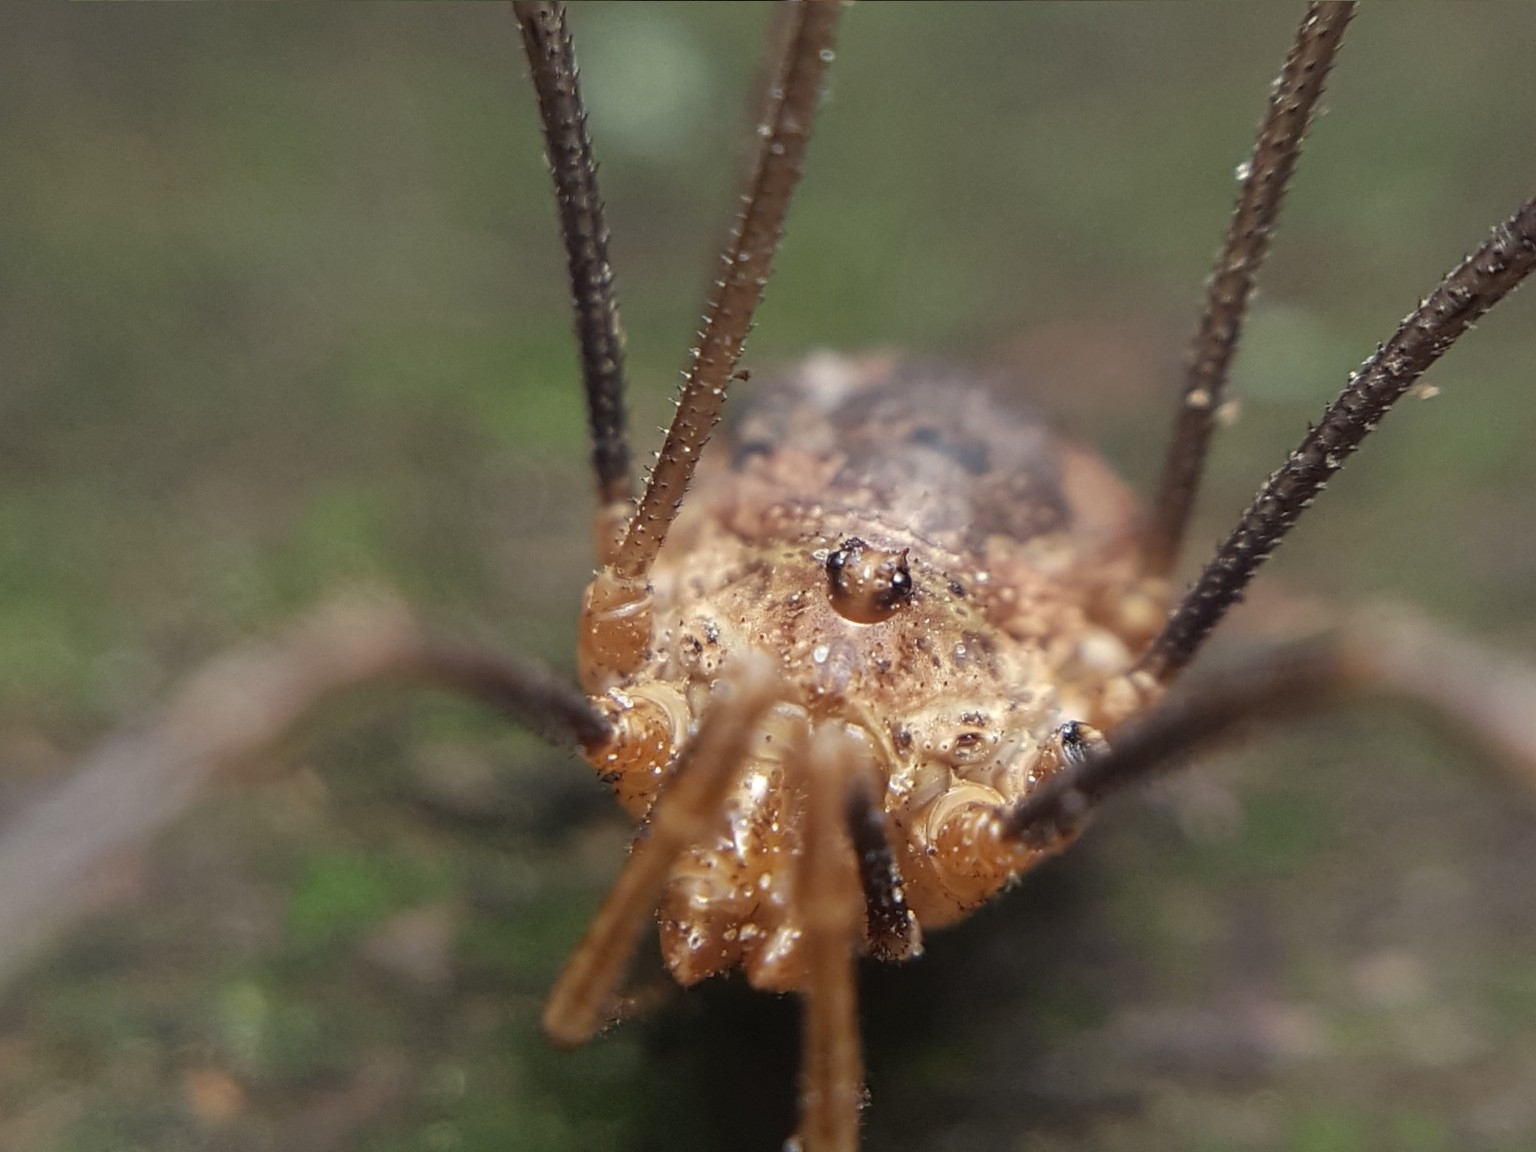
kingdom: Animalia
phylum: Arthropoda
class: Arachnida
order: Opiliones
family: Phalangiidae
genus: Phalangium
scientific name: Phalangium opilio
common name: Daddy longleg
